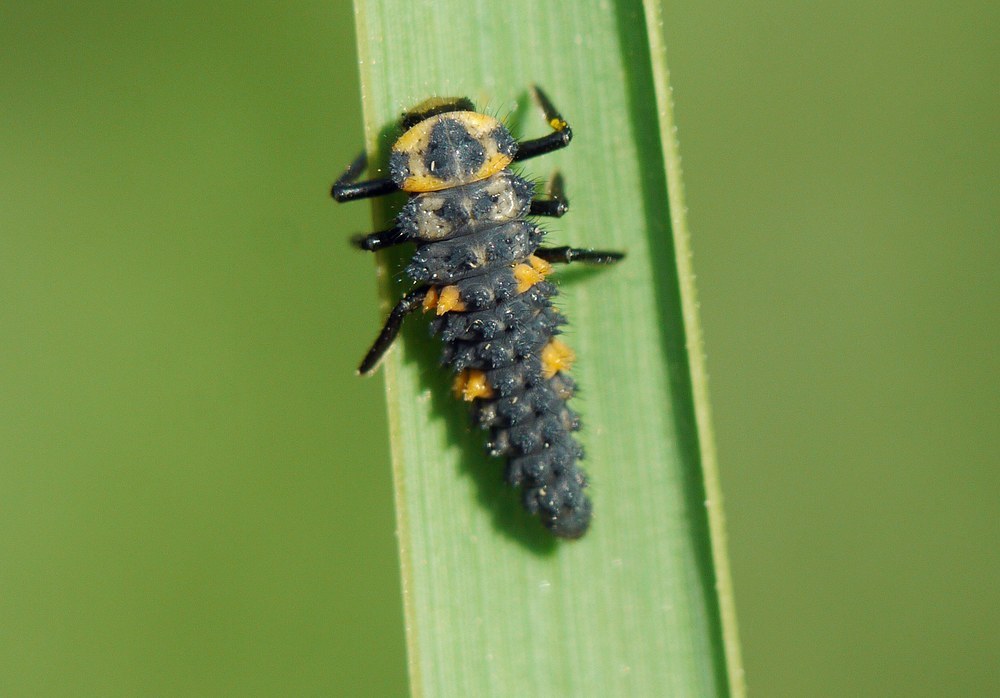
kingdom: Animalia
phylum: Arthropoda
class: Insecta
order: Coleoptera
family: Coccinellidae
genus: Coccinella
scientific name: Coccinella septempunctata
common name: Sevenspotted lady beetle
